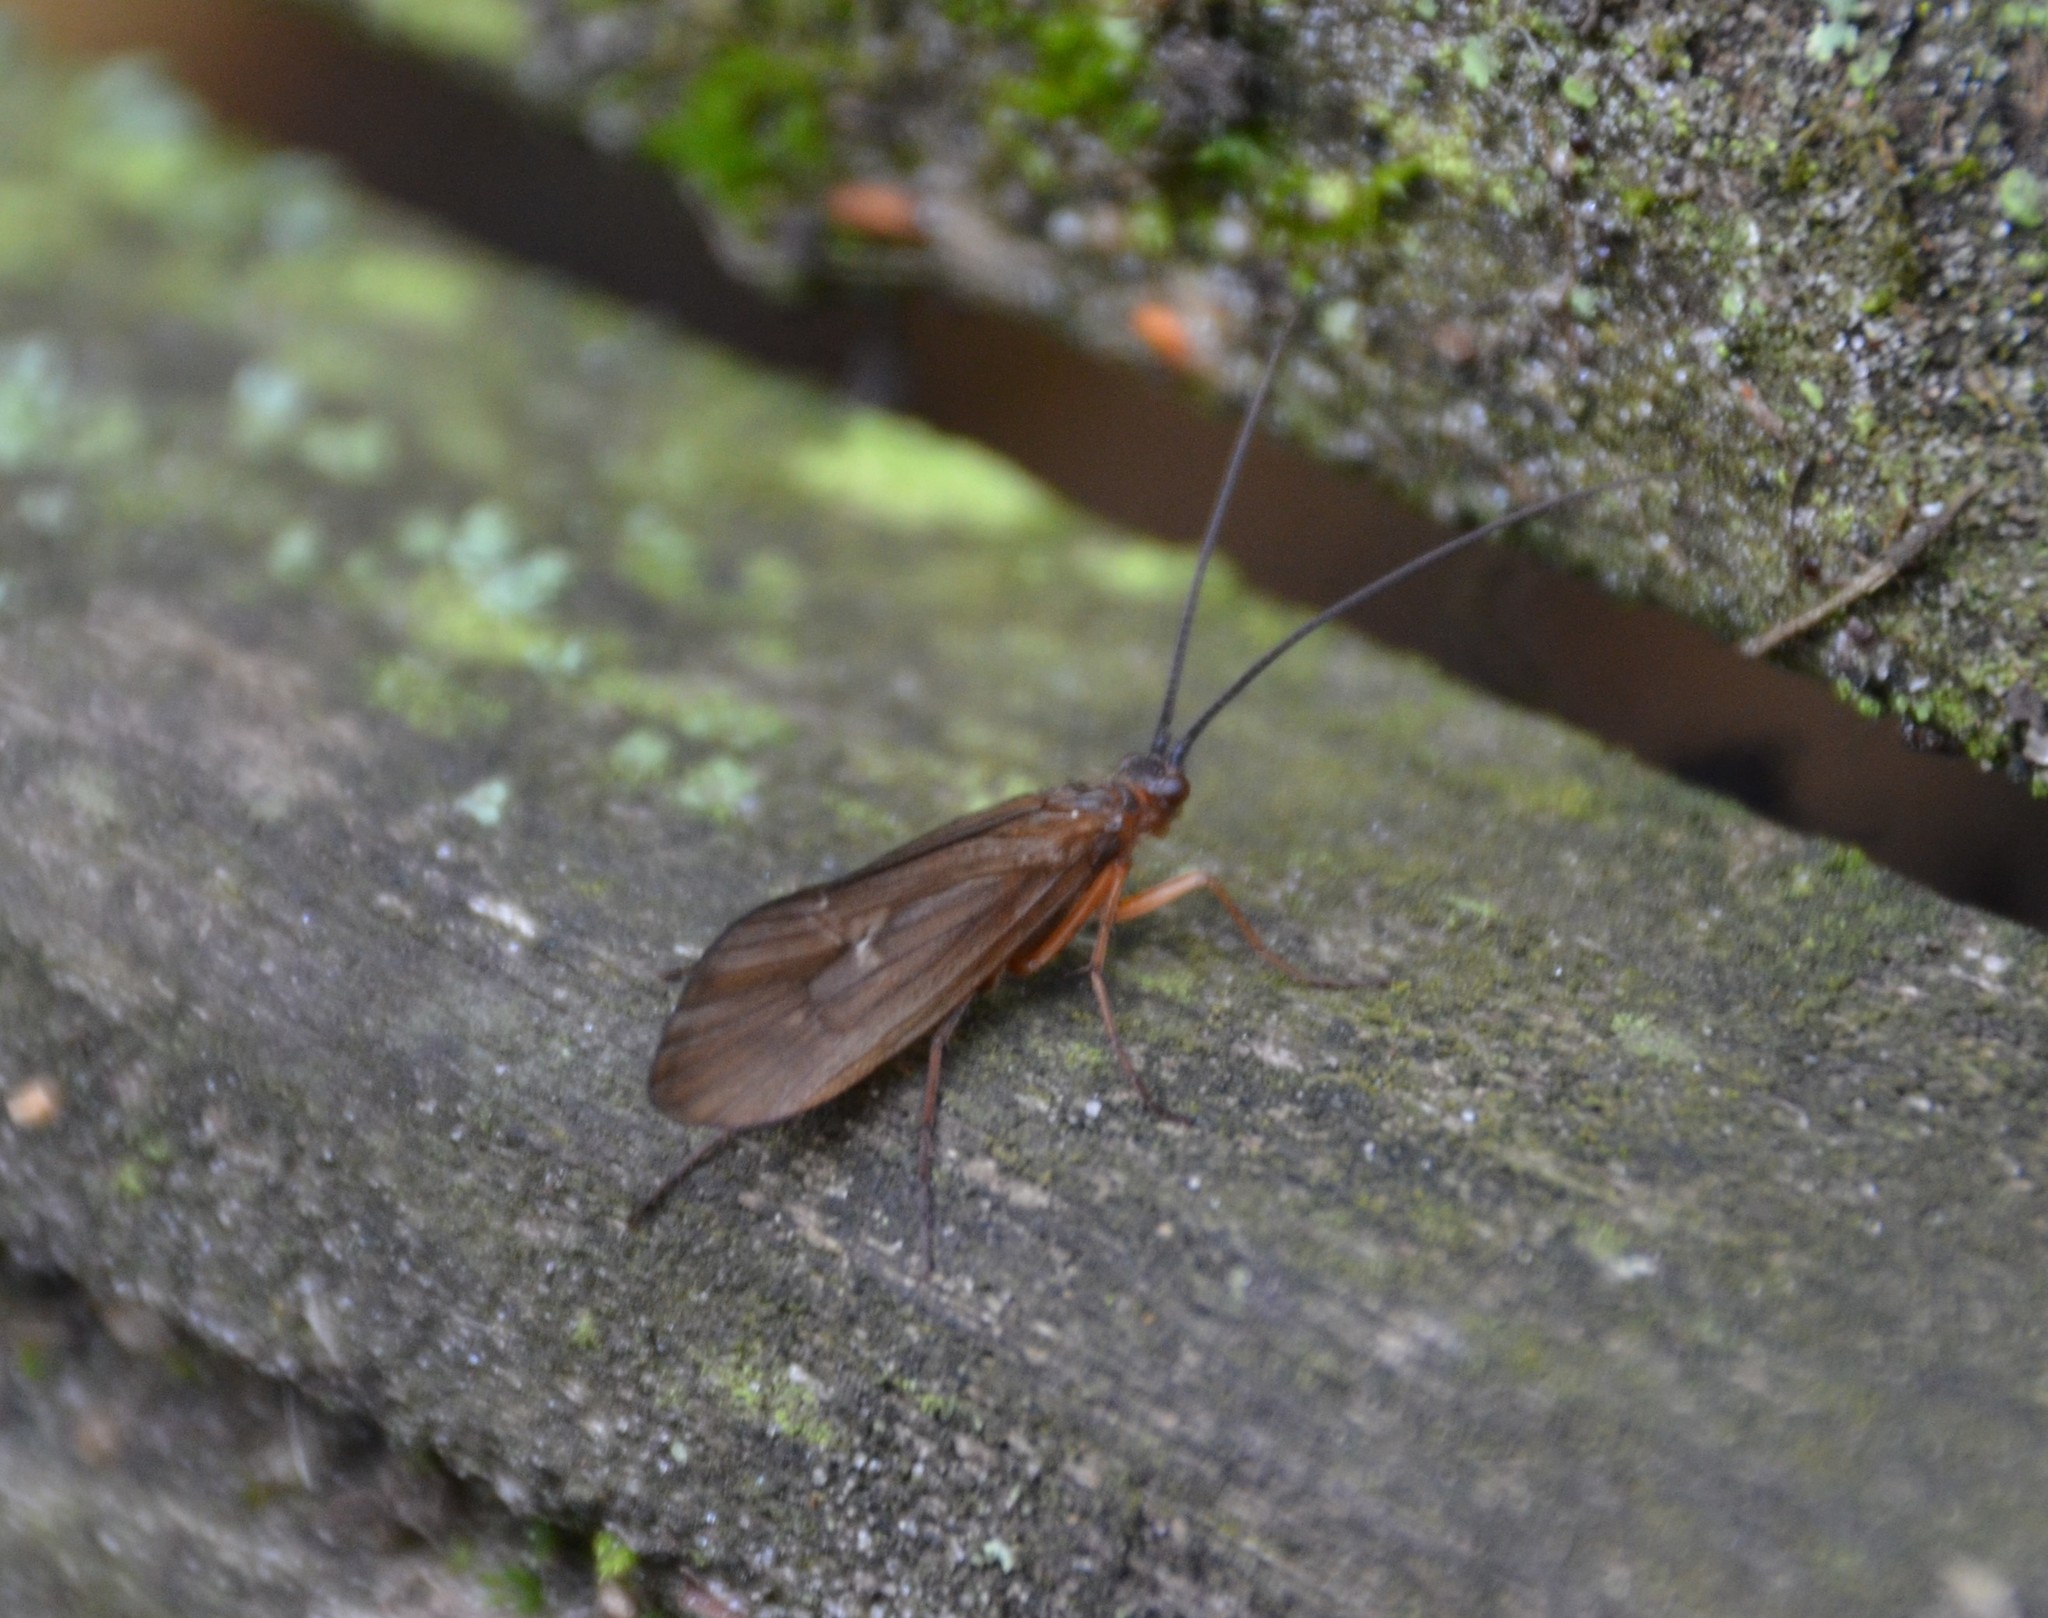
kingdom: Animalia
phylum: Arthropoda
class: Insecta
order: Trichoptera
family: Limnephilidae
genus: Anabolia
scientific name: Anabolia nervosa
